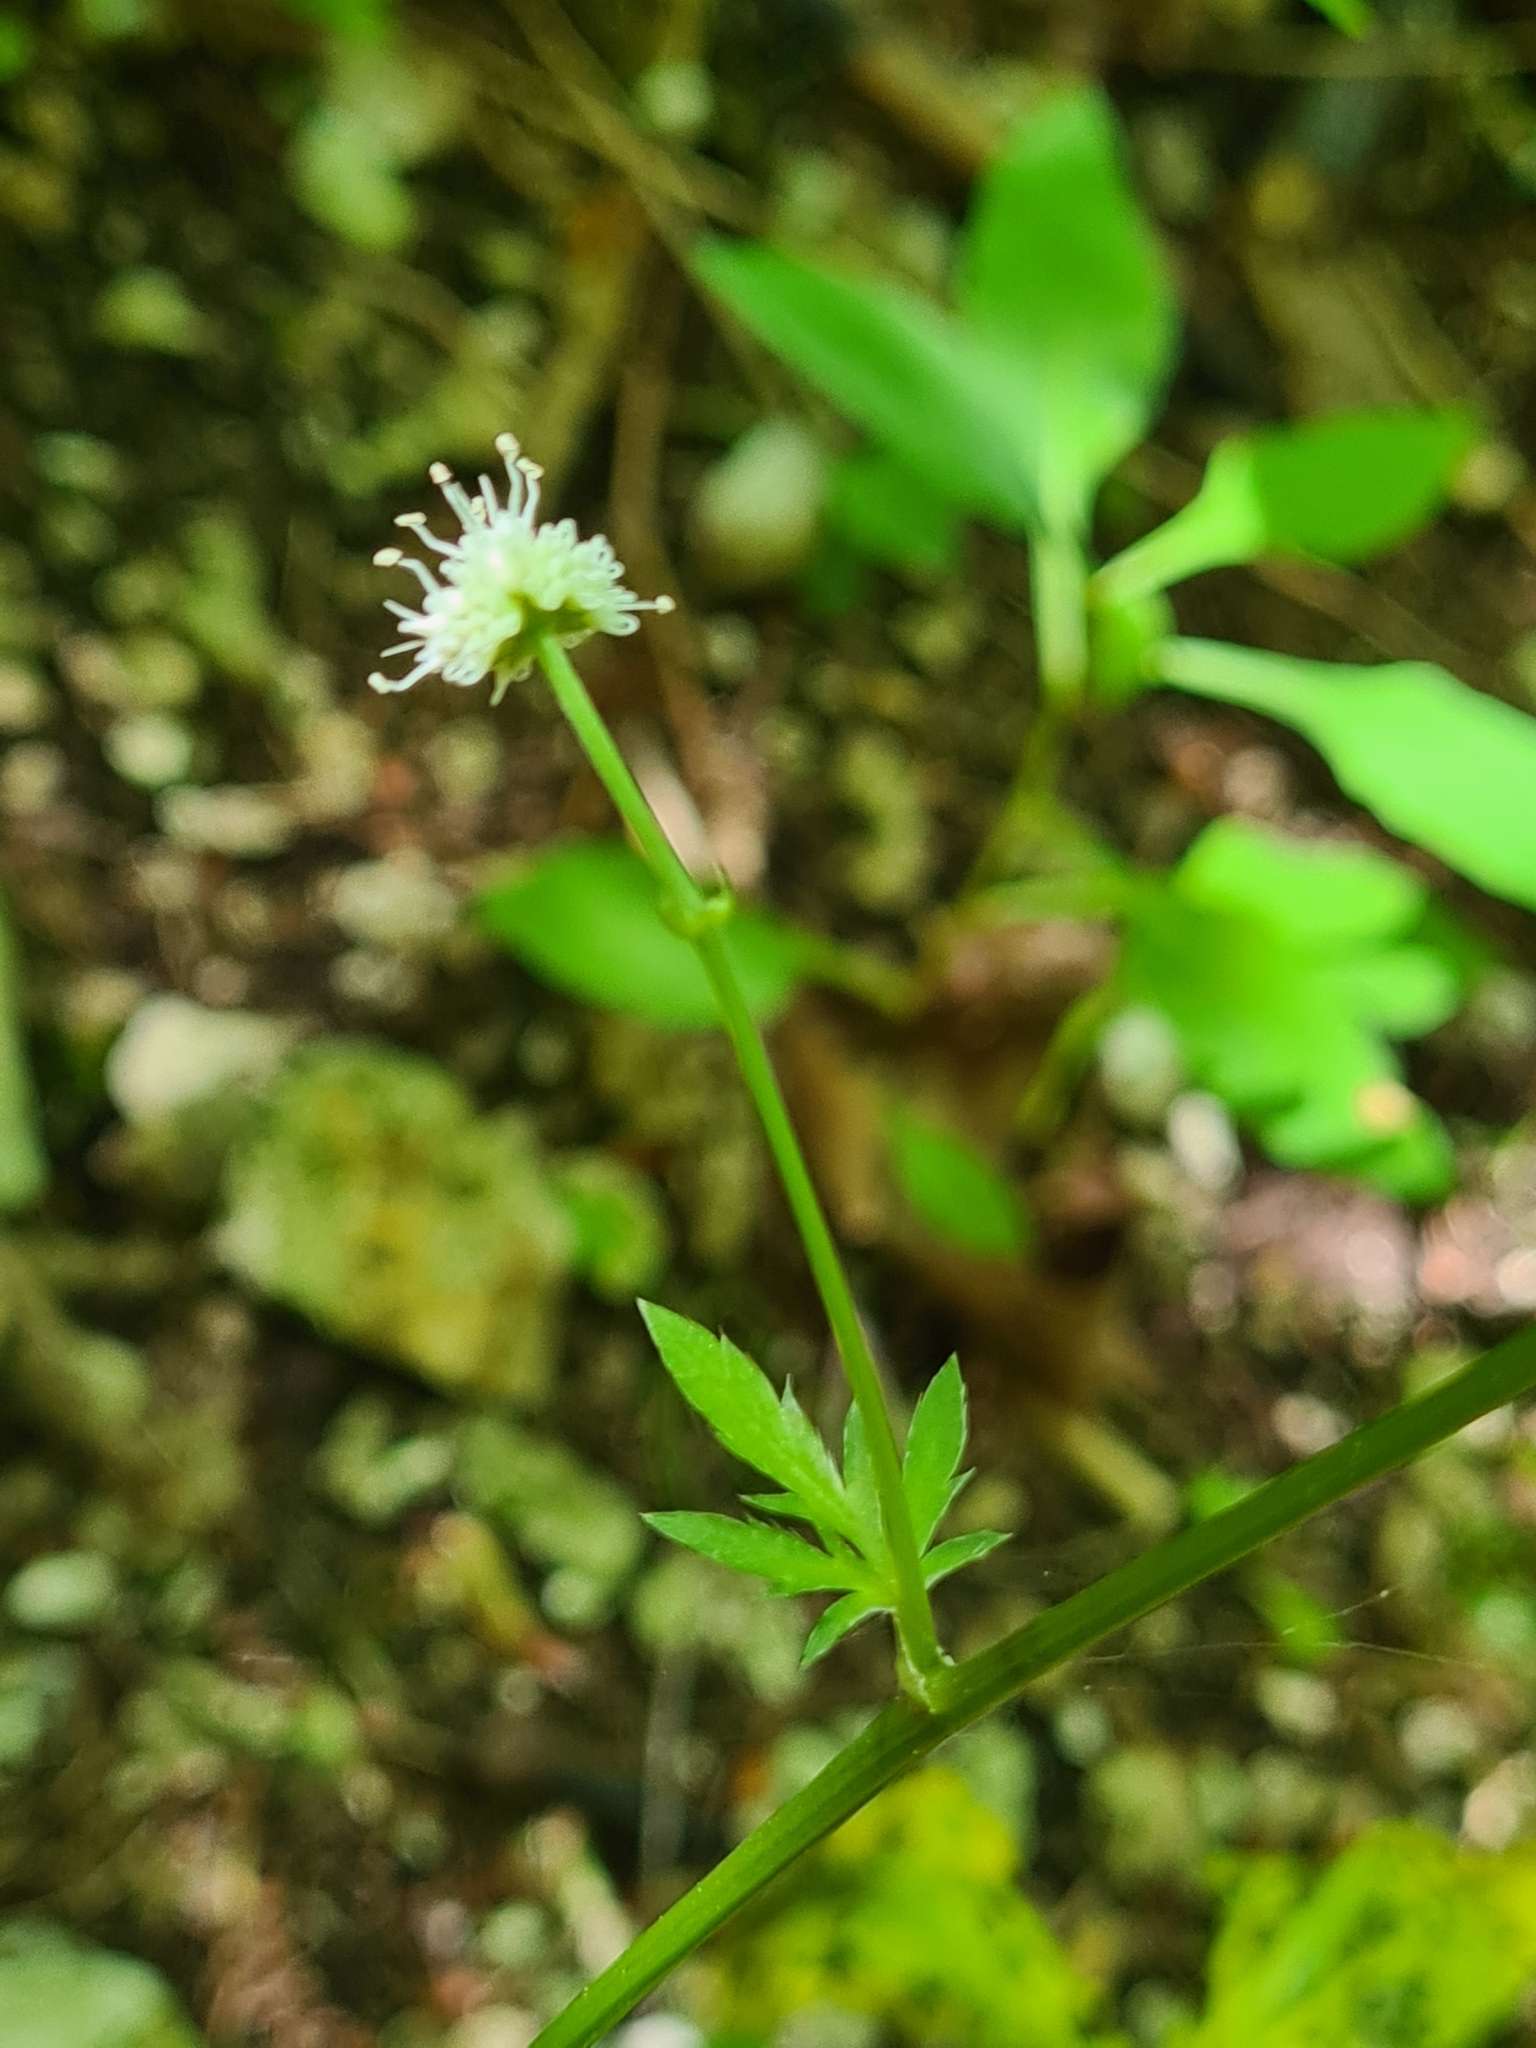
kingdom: Plantae
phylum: Tracheophyta
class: Magnoliopsida
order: Apiales
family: Apiaceae
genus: Sanicula
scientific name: Sanicula europaea
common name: Sanicle
